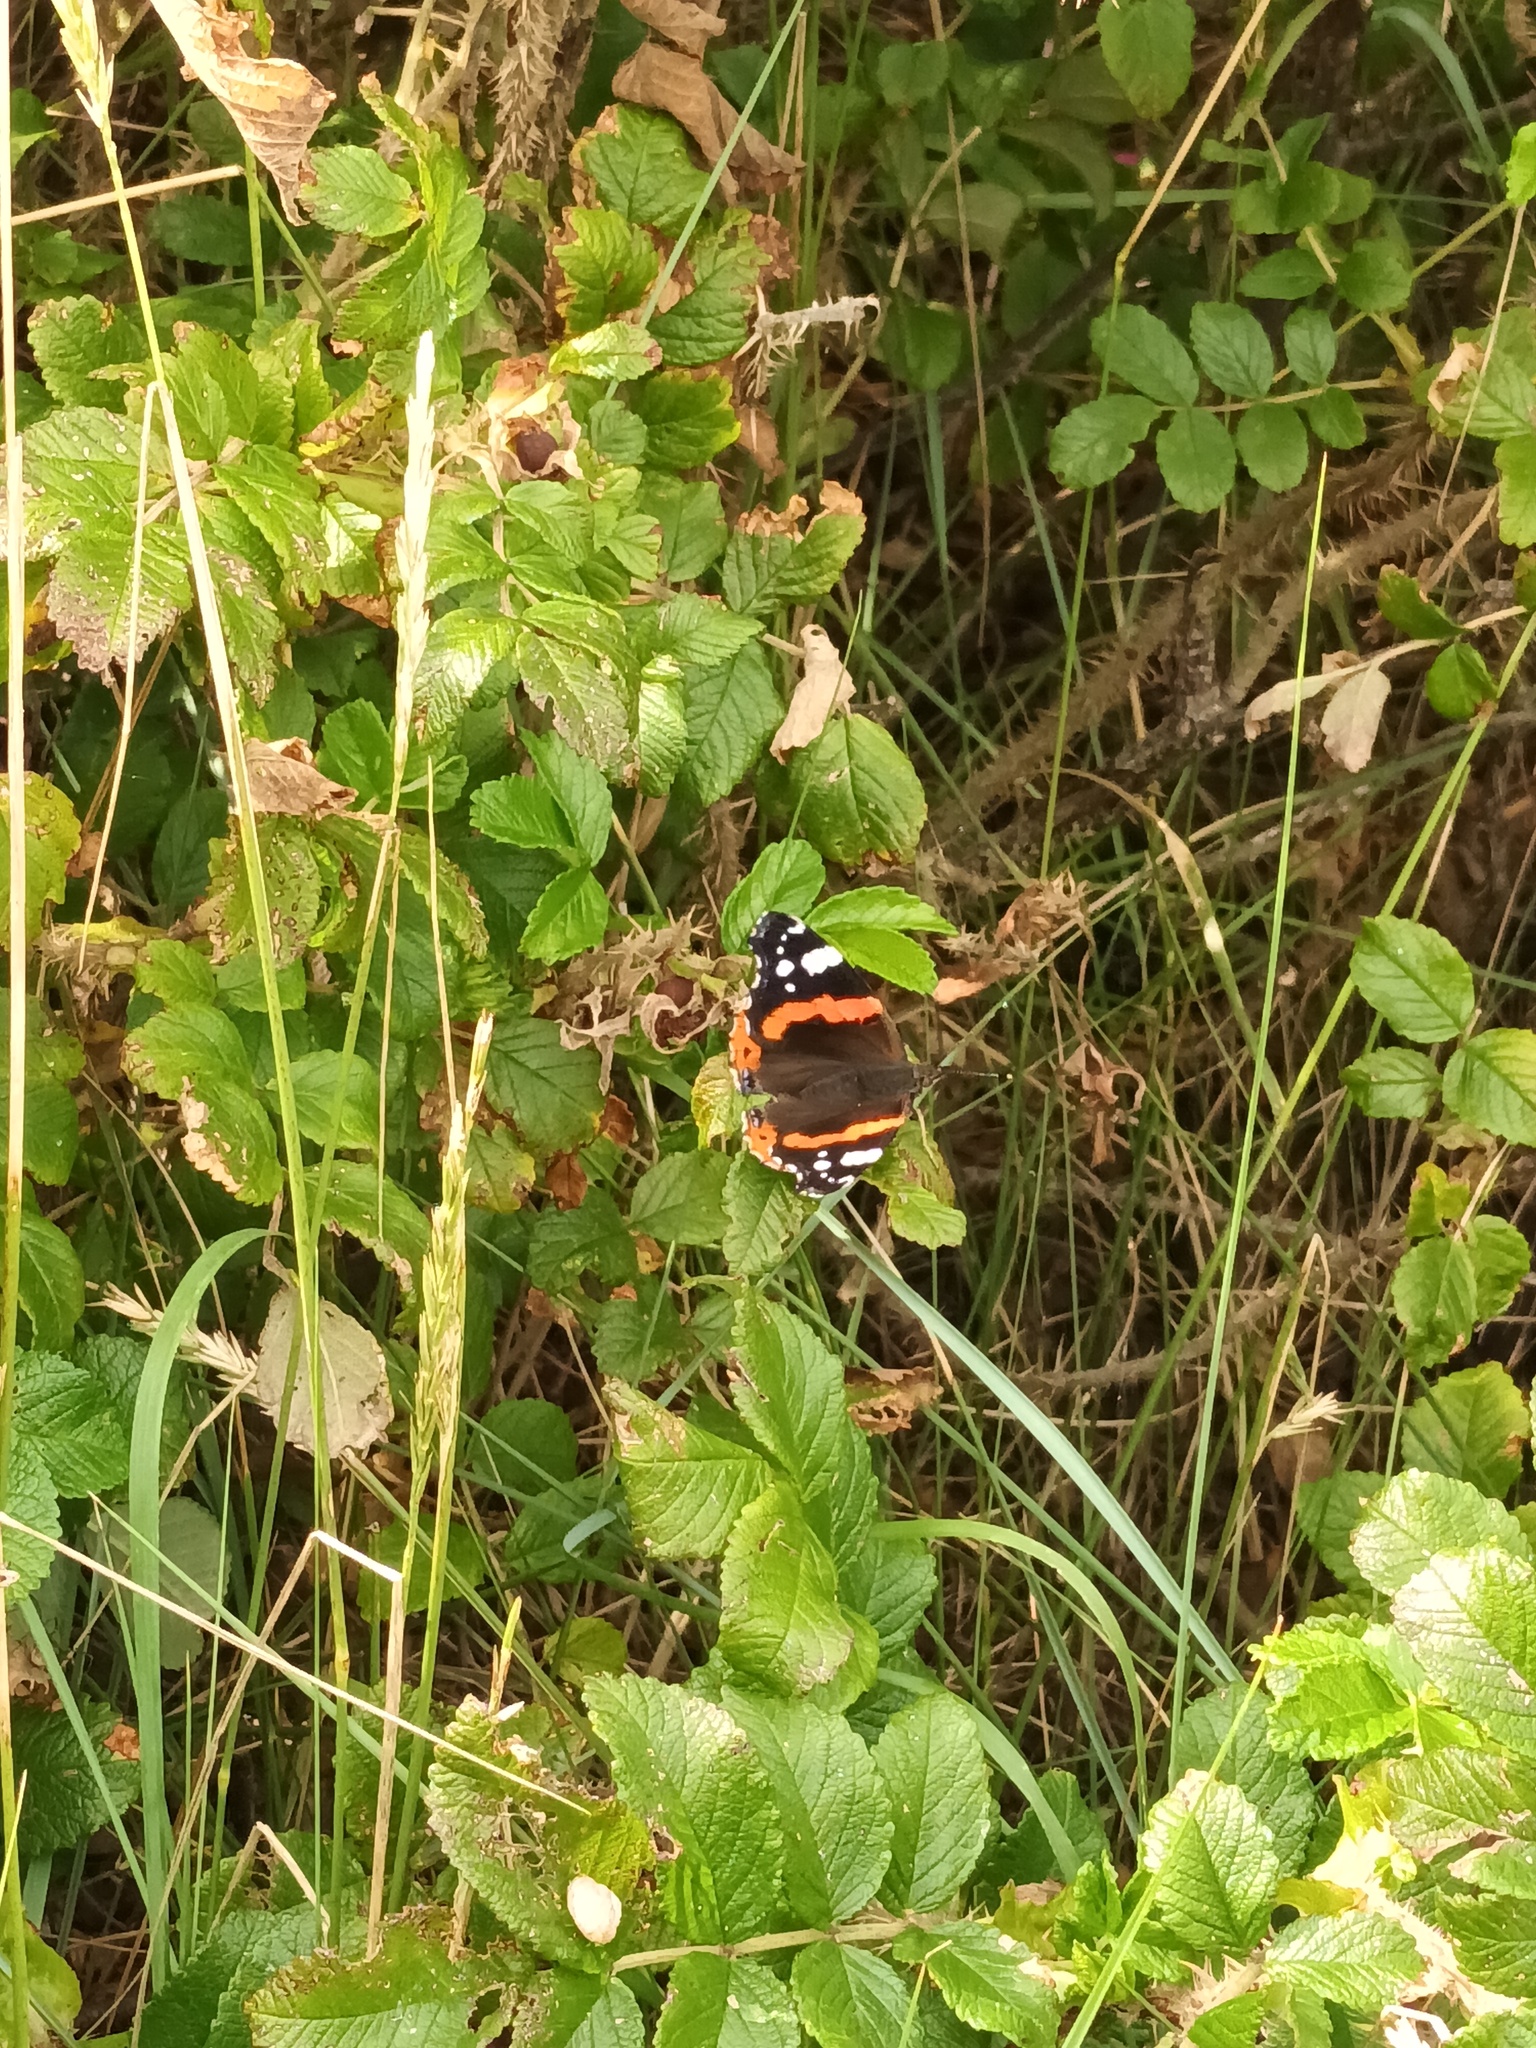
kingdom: Animalia
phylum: Arthropoda
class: Insecta
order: Lepidoptera
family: Nymphalidae
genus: Vanessa
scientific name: Vanessa atalanta
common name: Red admiral
